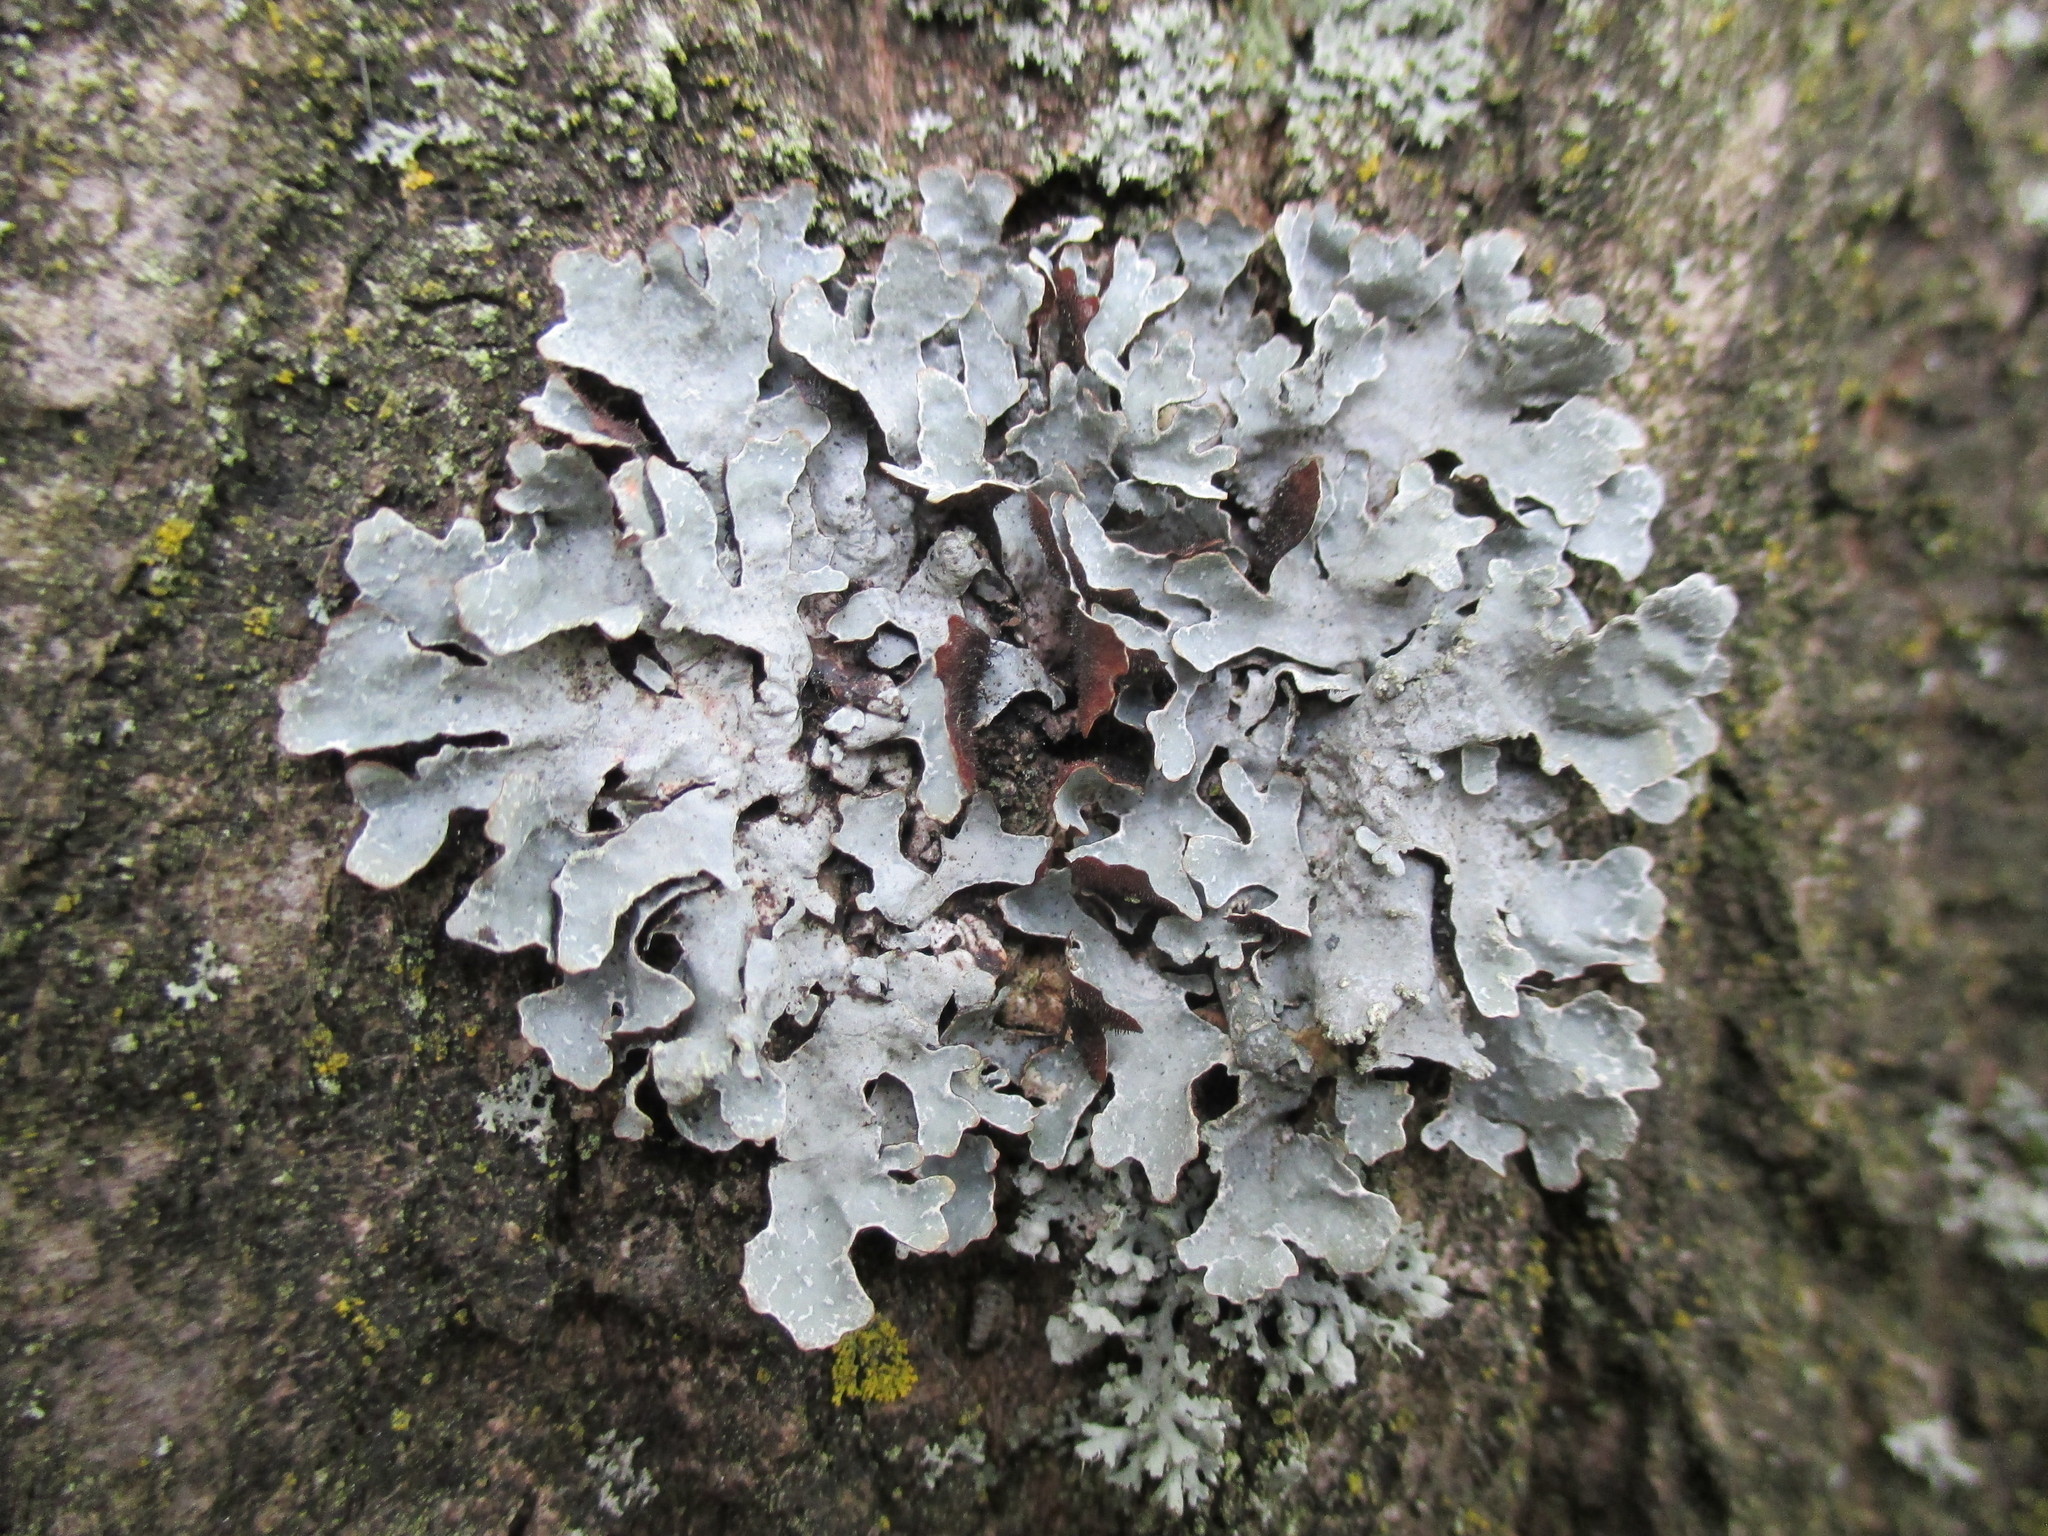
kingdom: Fungi
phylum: Ascomycota
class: Lecanoromycetes
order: Lecanorales
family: Parmeliaceae
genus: Parmelia
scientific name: Parmelia sulcata
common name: Netted shield lichen
